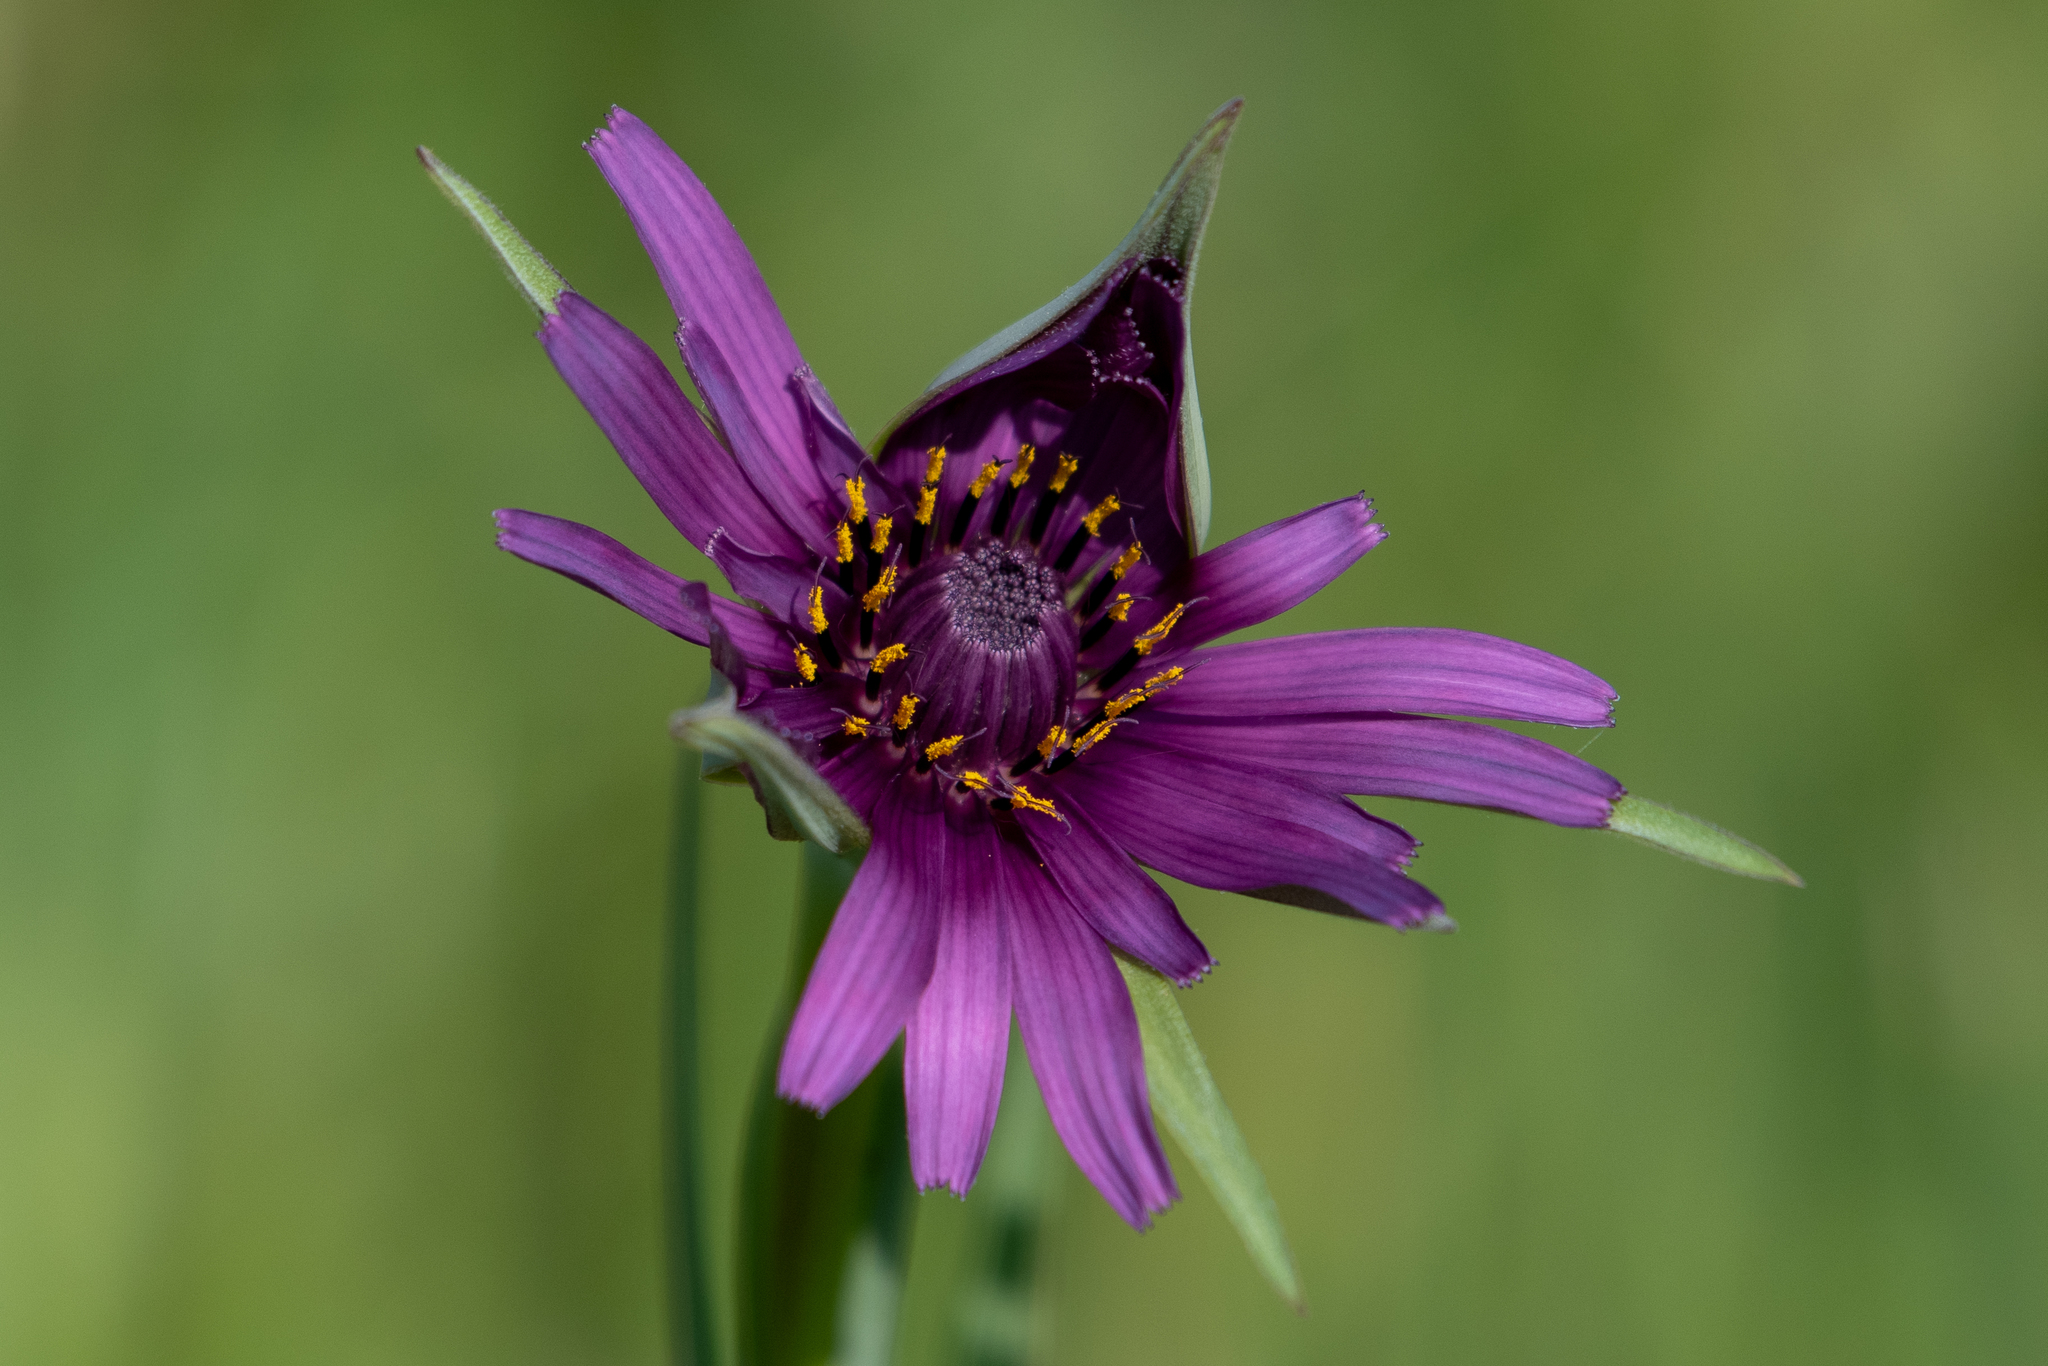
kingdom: Plantae
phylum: Tracheophyta
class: Magnoliopsida
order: Asterales
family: Asteraceae
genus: Tragopogon
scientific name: Tragopogon porrifolius
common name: Salsify
